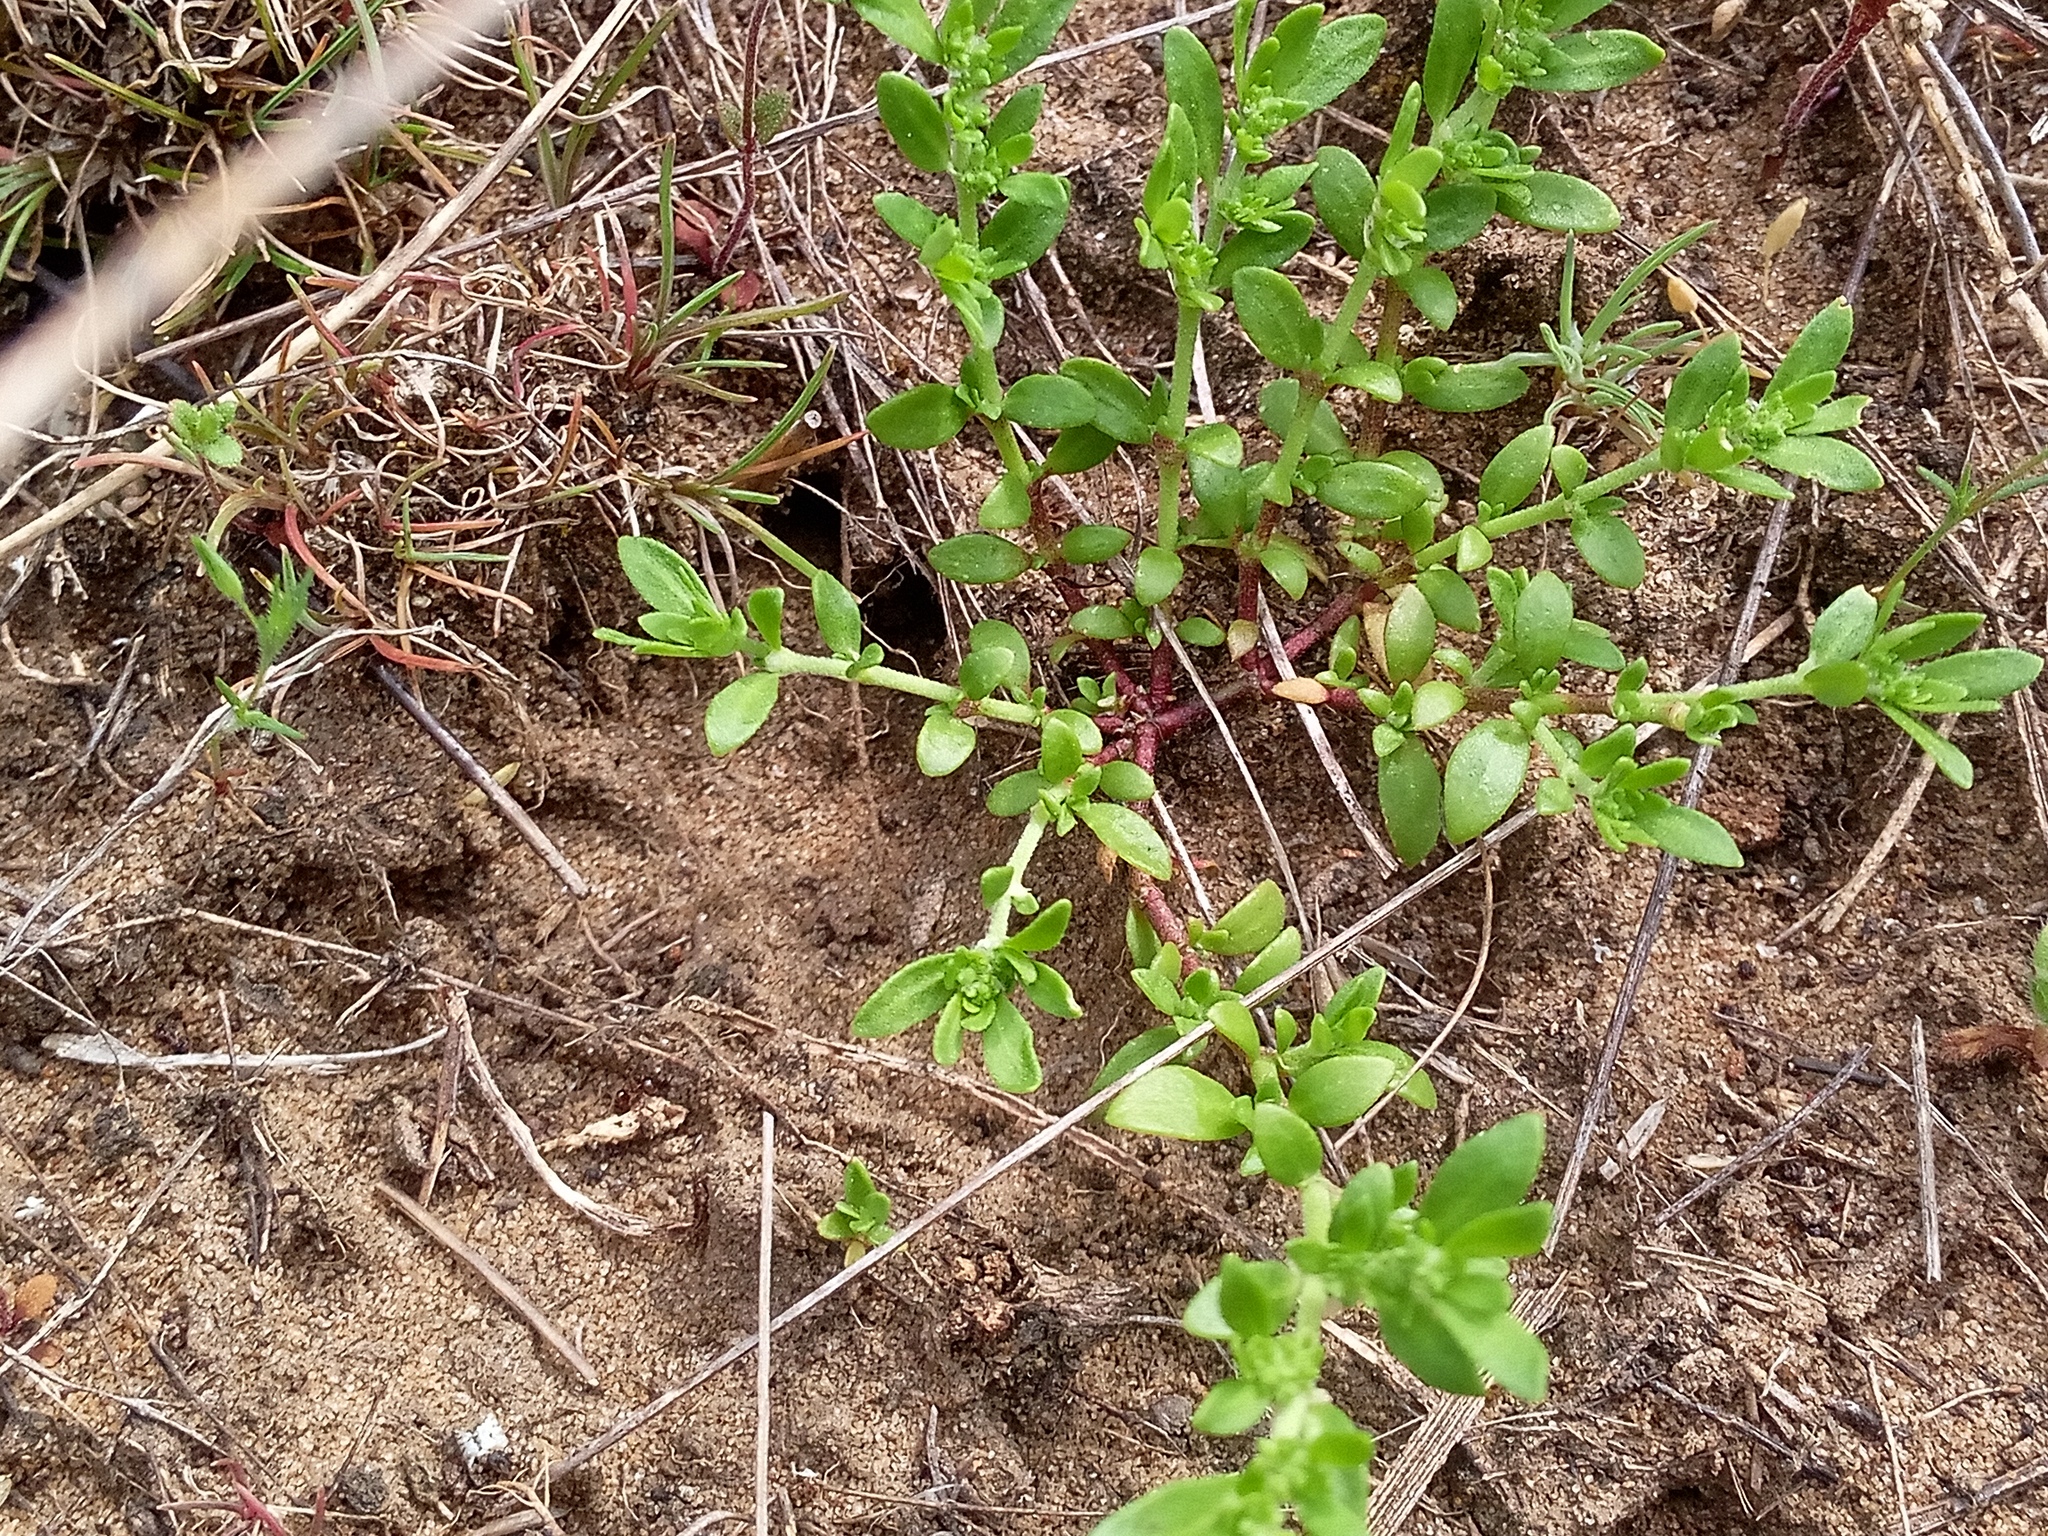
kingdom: Plantae
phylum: Tracheophyta
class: Magnoliopsida
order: Caryophyllales
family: Caryophyllaceae
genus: Herniaria
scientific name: Herniaria glabra
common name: Smooth rupturewort
